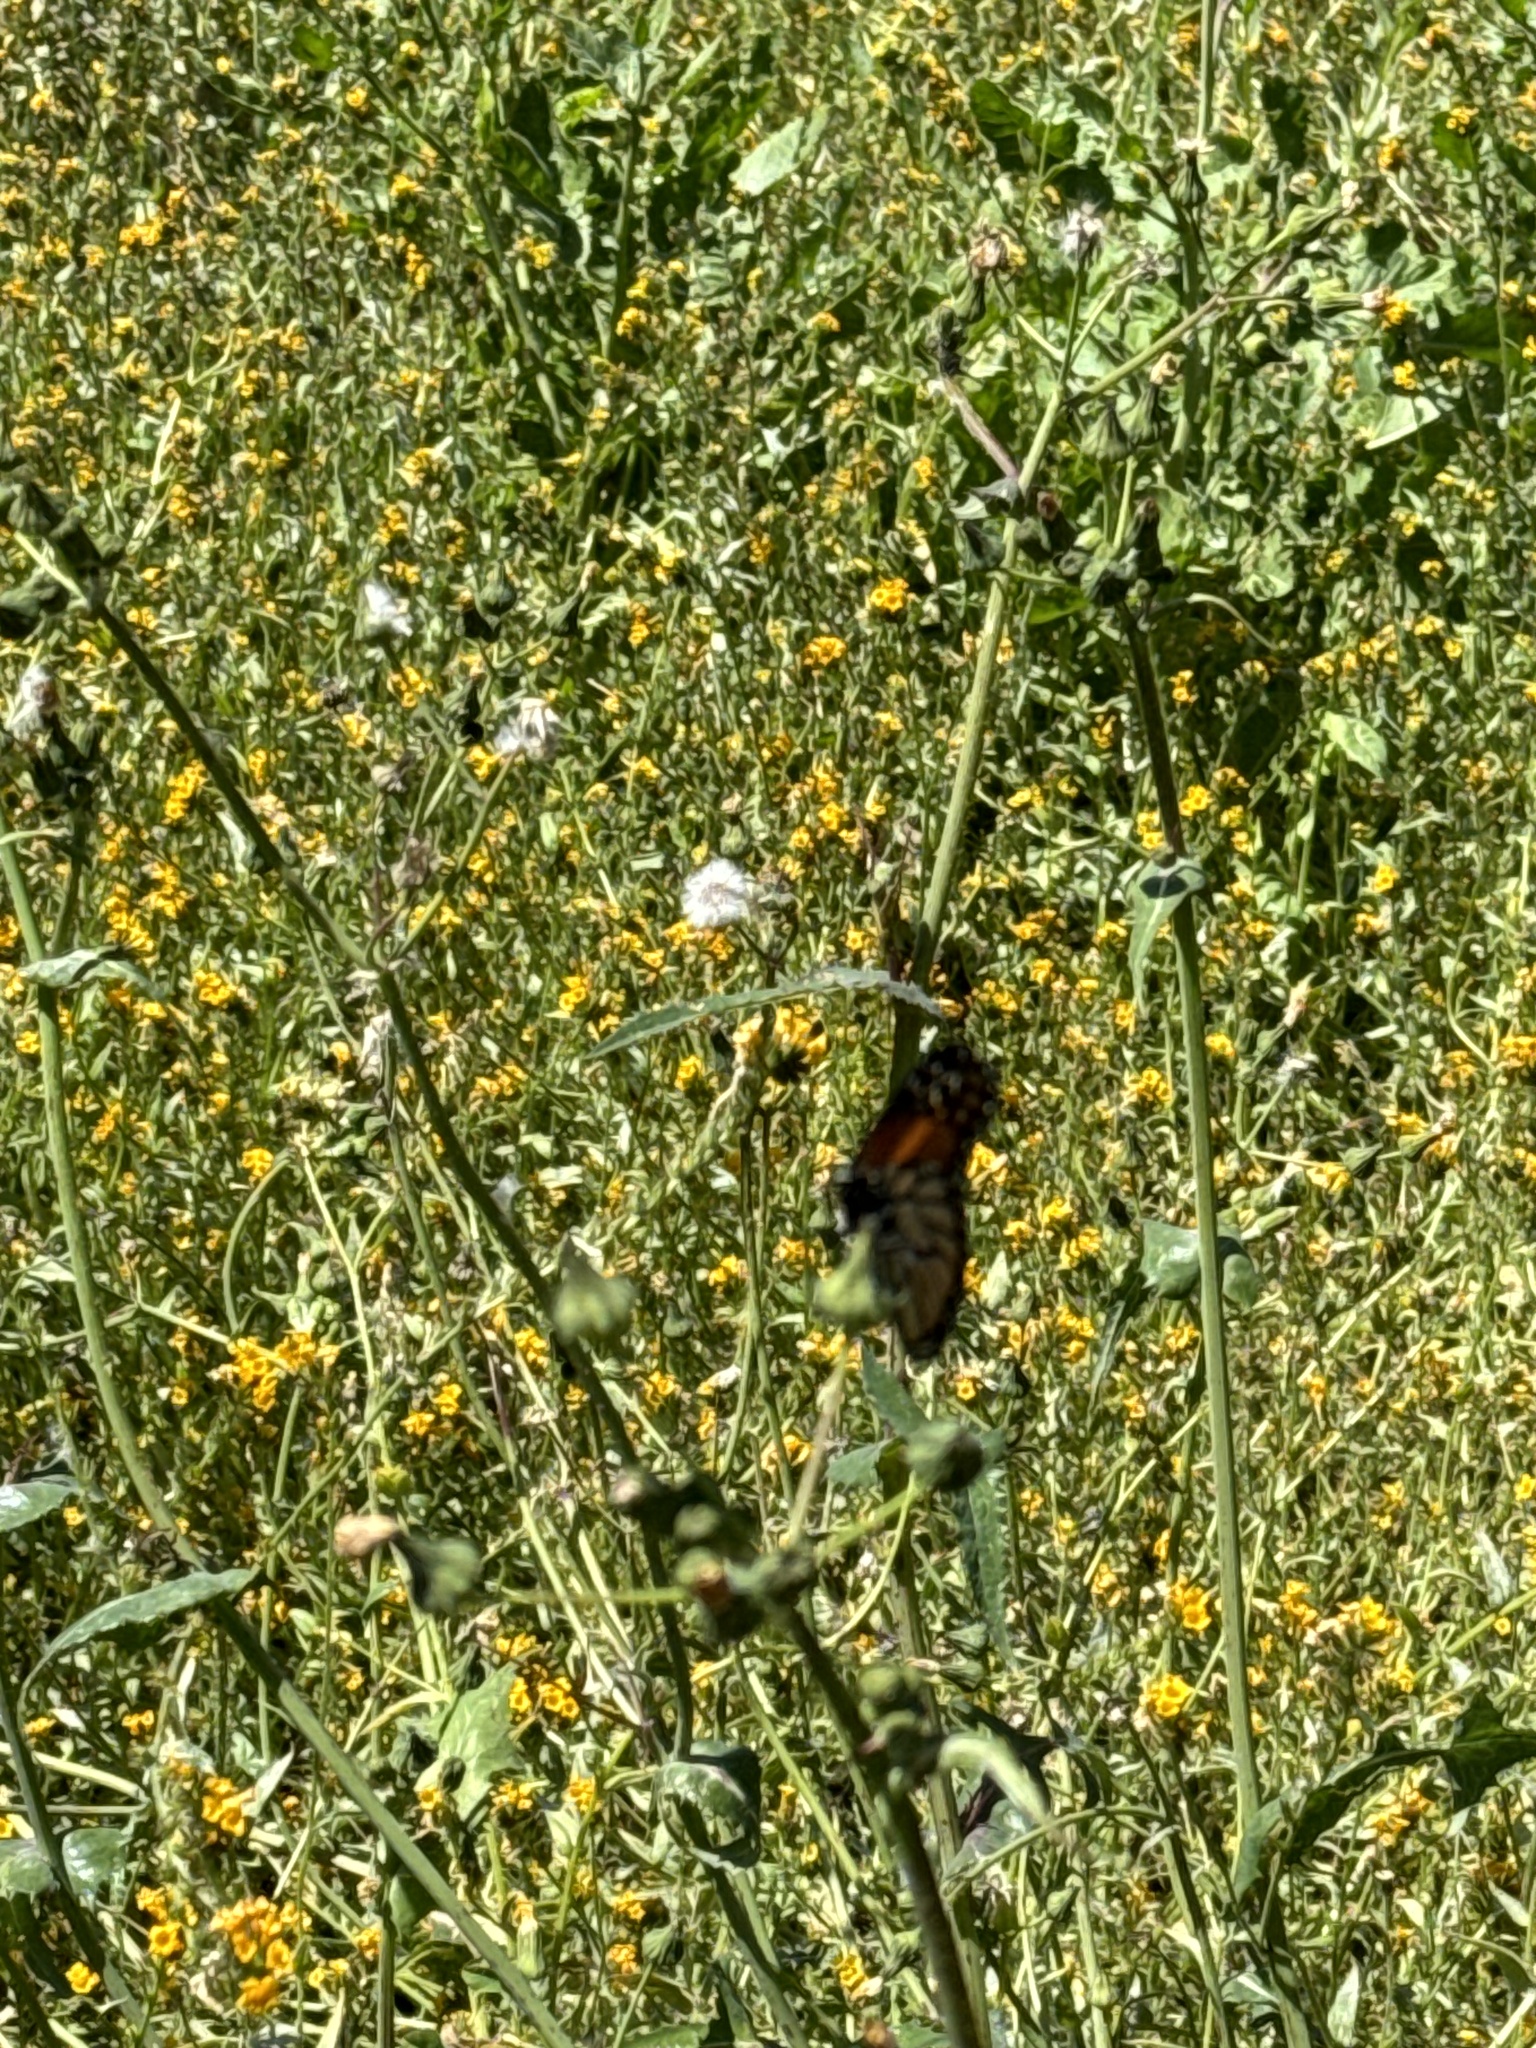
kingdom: Animalia
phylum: Arthropoda
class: Insecta
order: Lepidoptera
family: Nymphalidae
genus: Danaus
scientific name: Danaus plexippus
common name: Monarch
